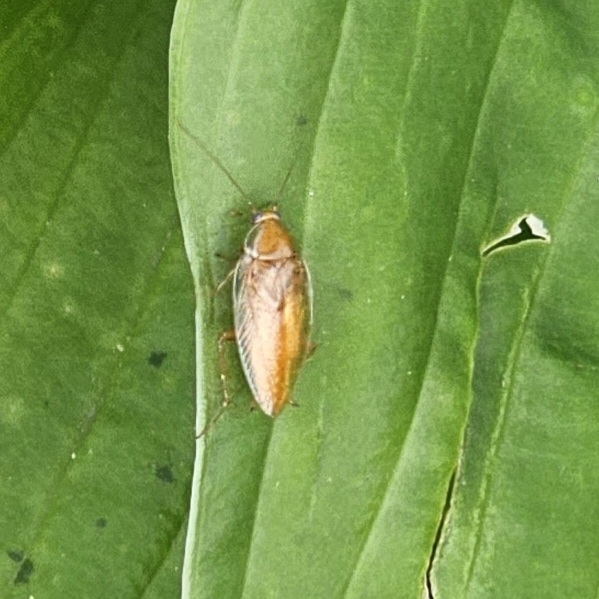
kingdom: Animalia
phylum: Arthropoda
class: Insecta
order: Blattodea
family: Ectobiidae
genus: Ectobius
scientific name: Ectobius pallidus
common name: Tawny cockroach
